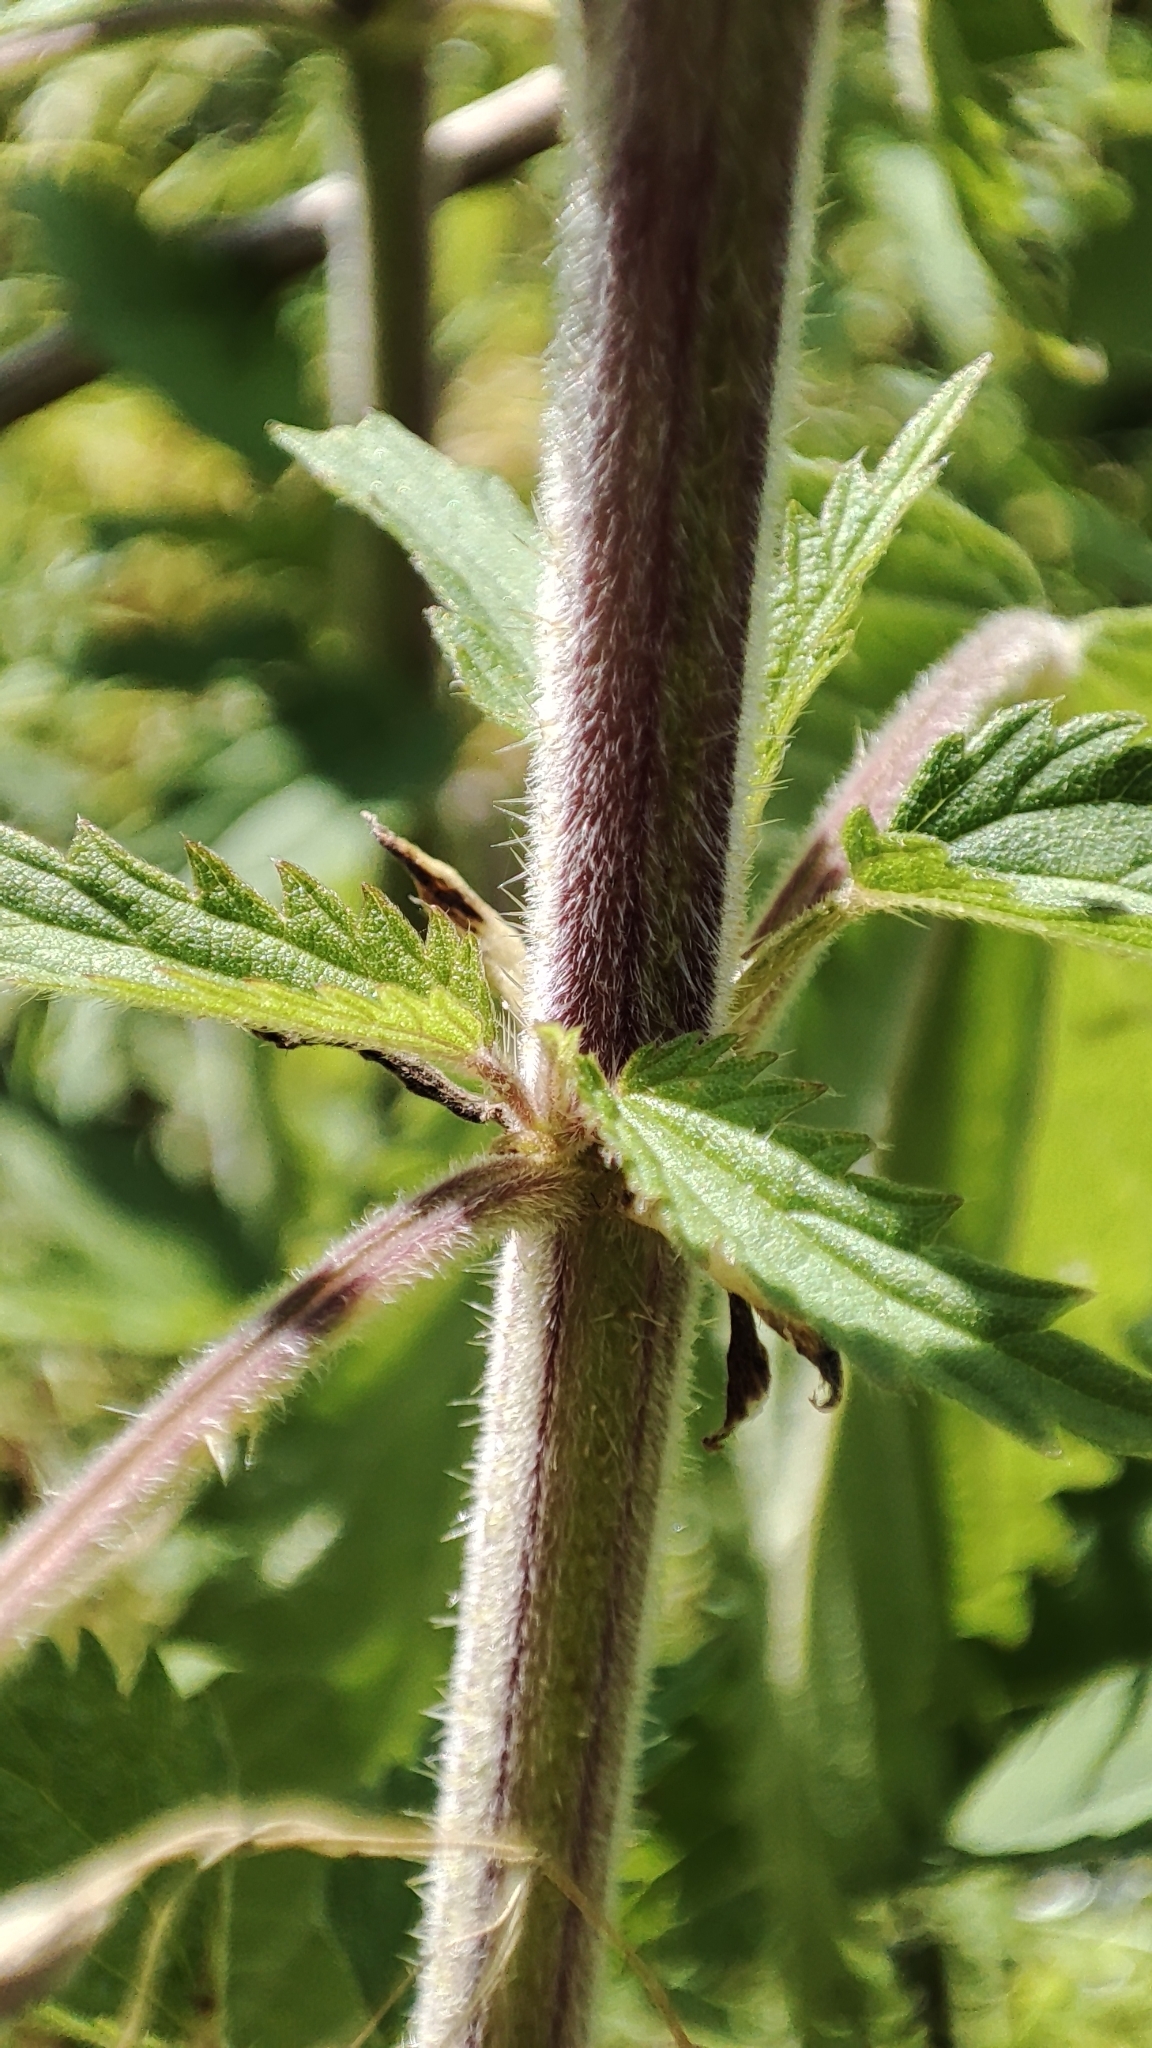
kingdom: Plantae
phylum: Tracheophyta
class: Magnoliopsida
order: Rosales
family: Urticaceae
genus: Urtica
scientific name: Urtica galeopsifolia
